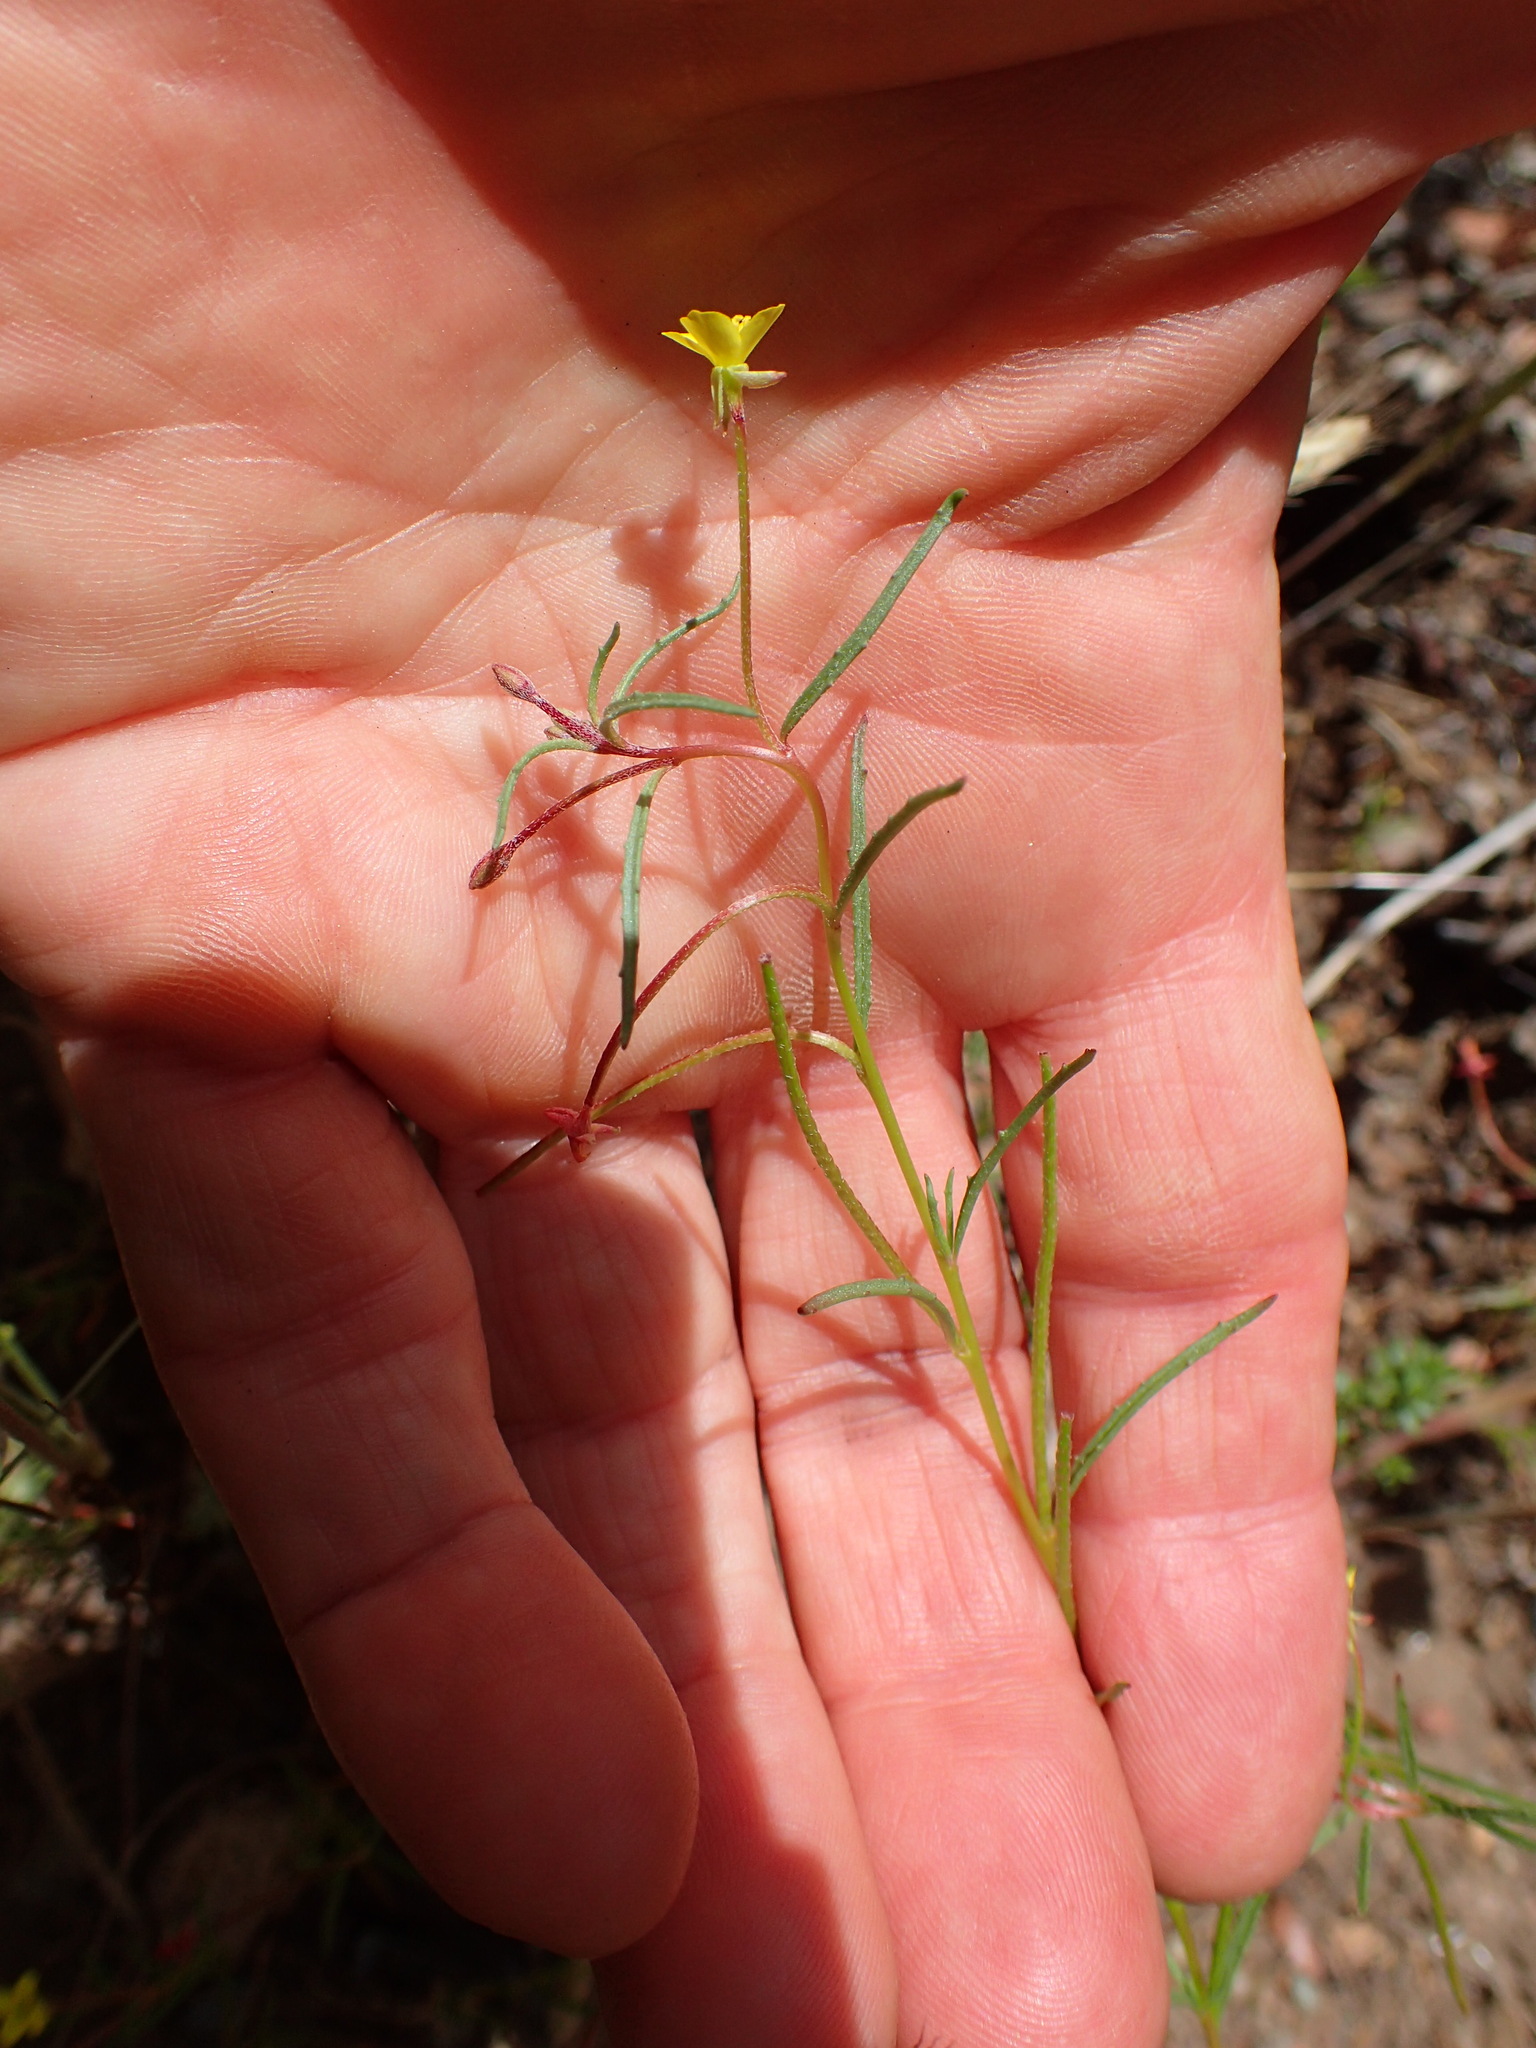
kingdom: Plantae
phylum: Tracheophyta
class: Magnoliopsida
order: Myrtales
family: Onagraceae
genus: Camissonia
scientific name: Camissonia strigulosa
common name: Contorted-primrose
